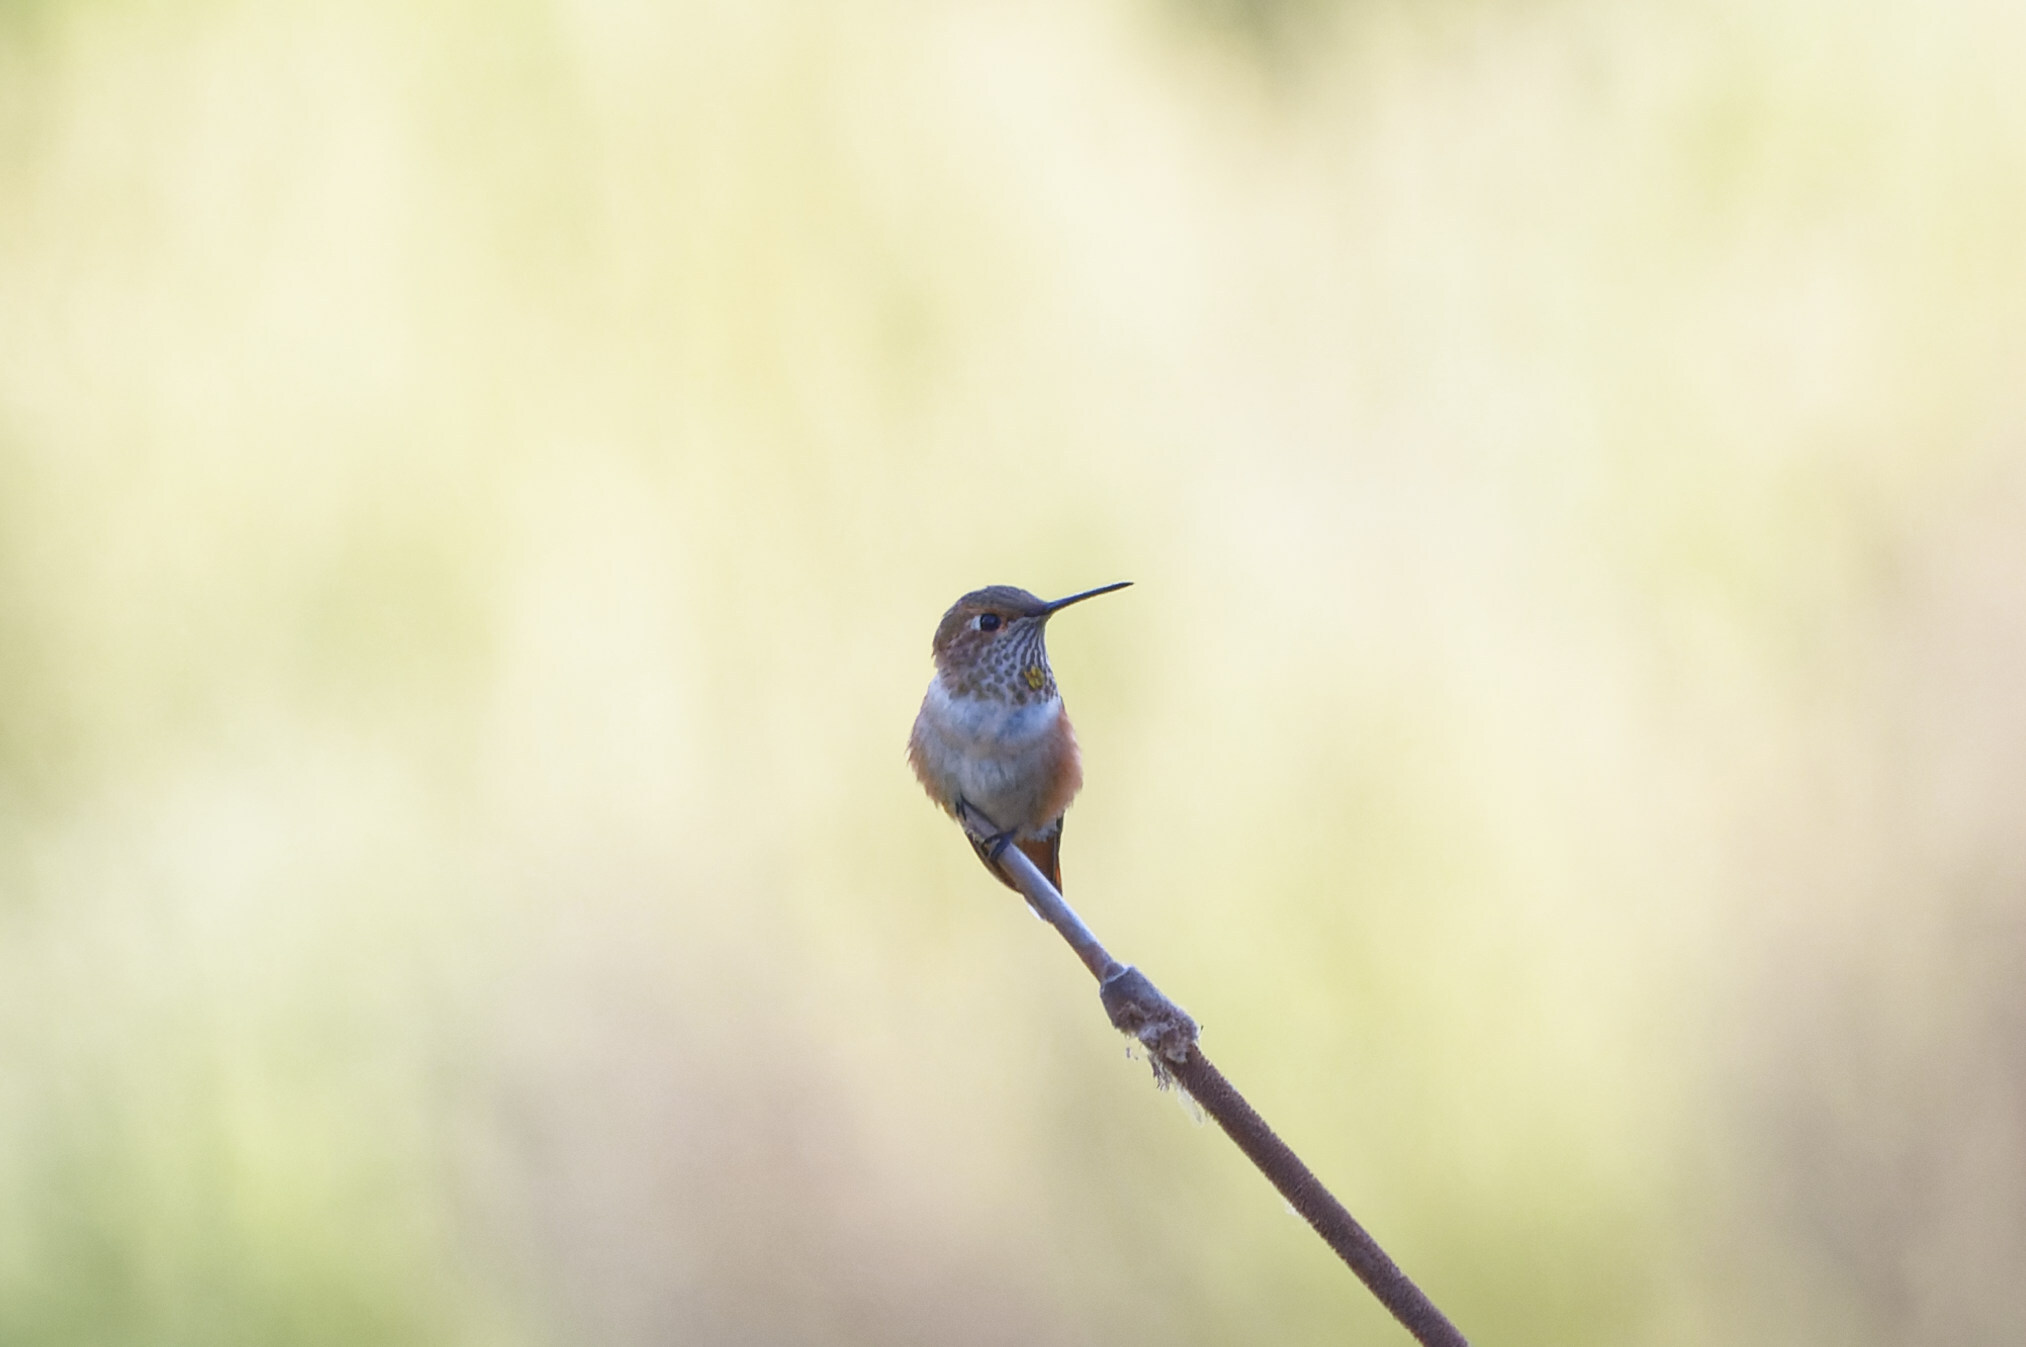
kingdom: Animalia
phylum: Chordata
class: Aves
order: Apodiformes
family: Trochilidae
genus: Selasphorus
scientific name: Selasphorus
